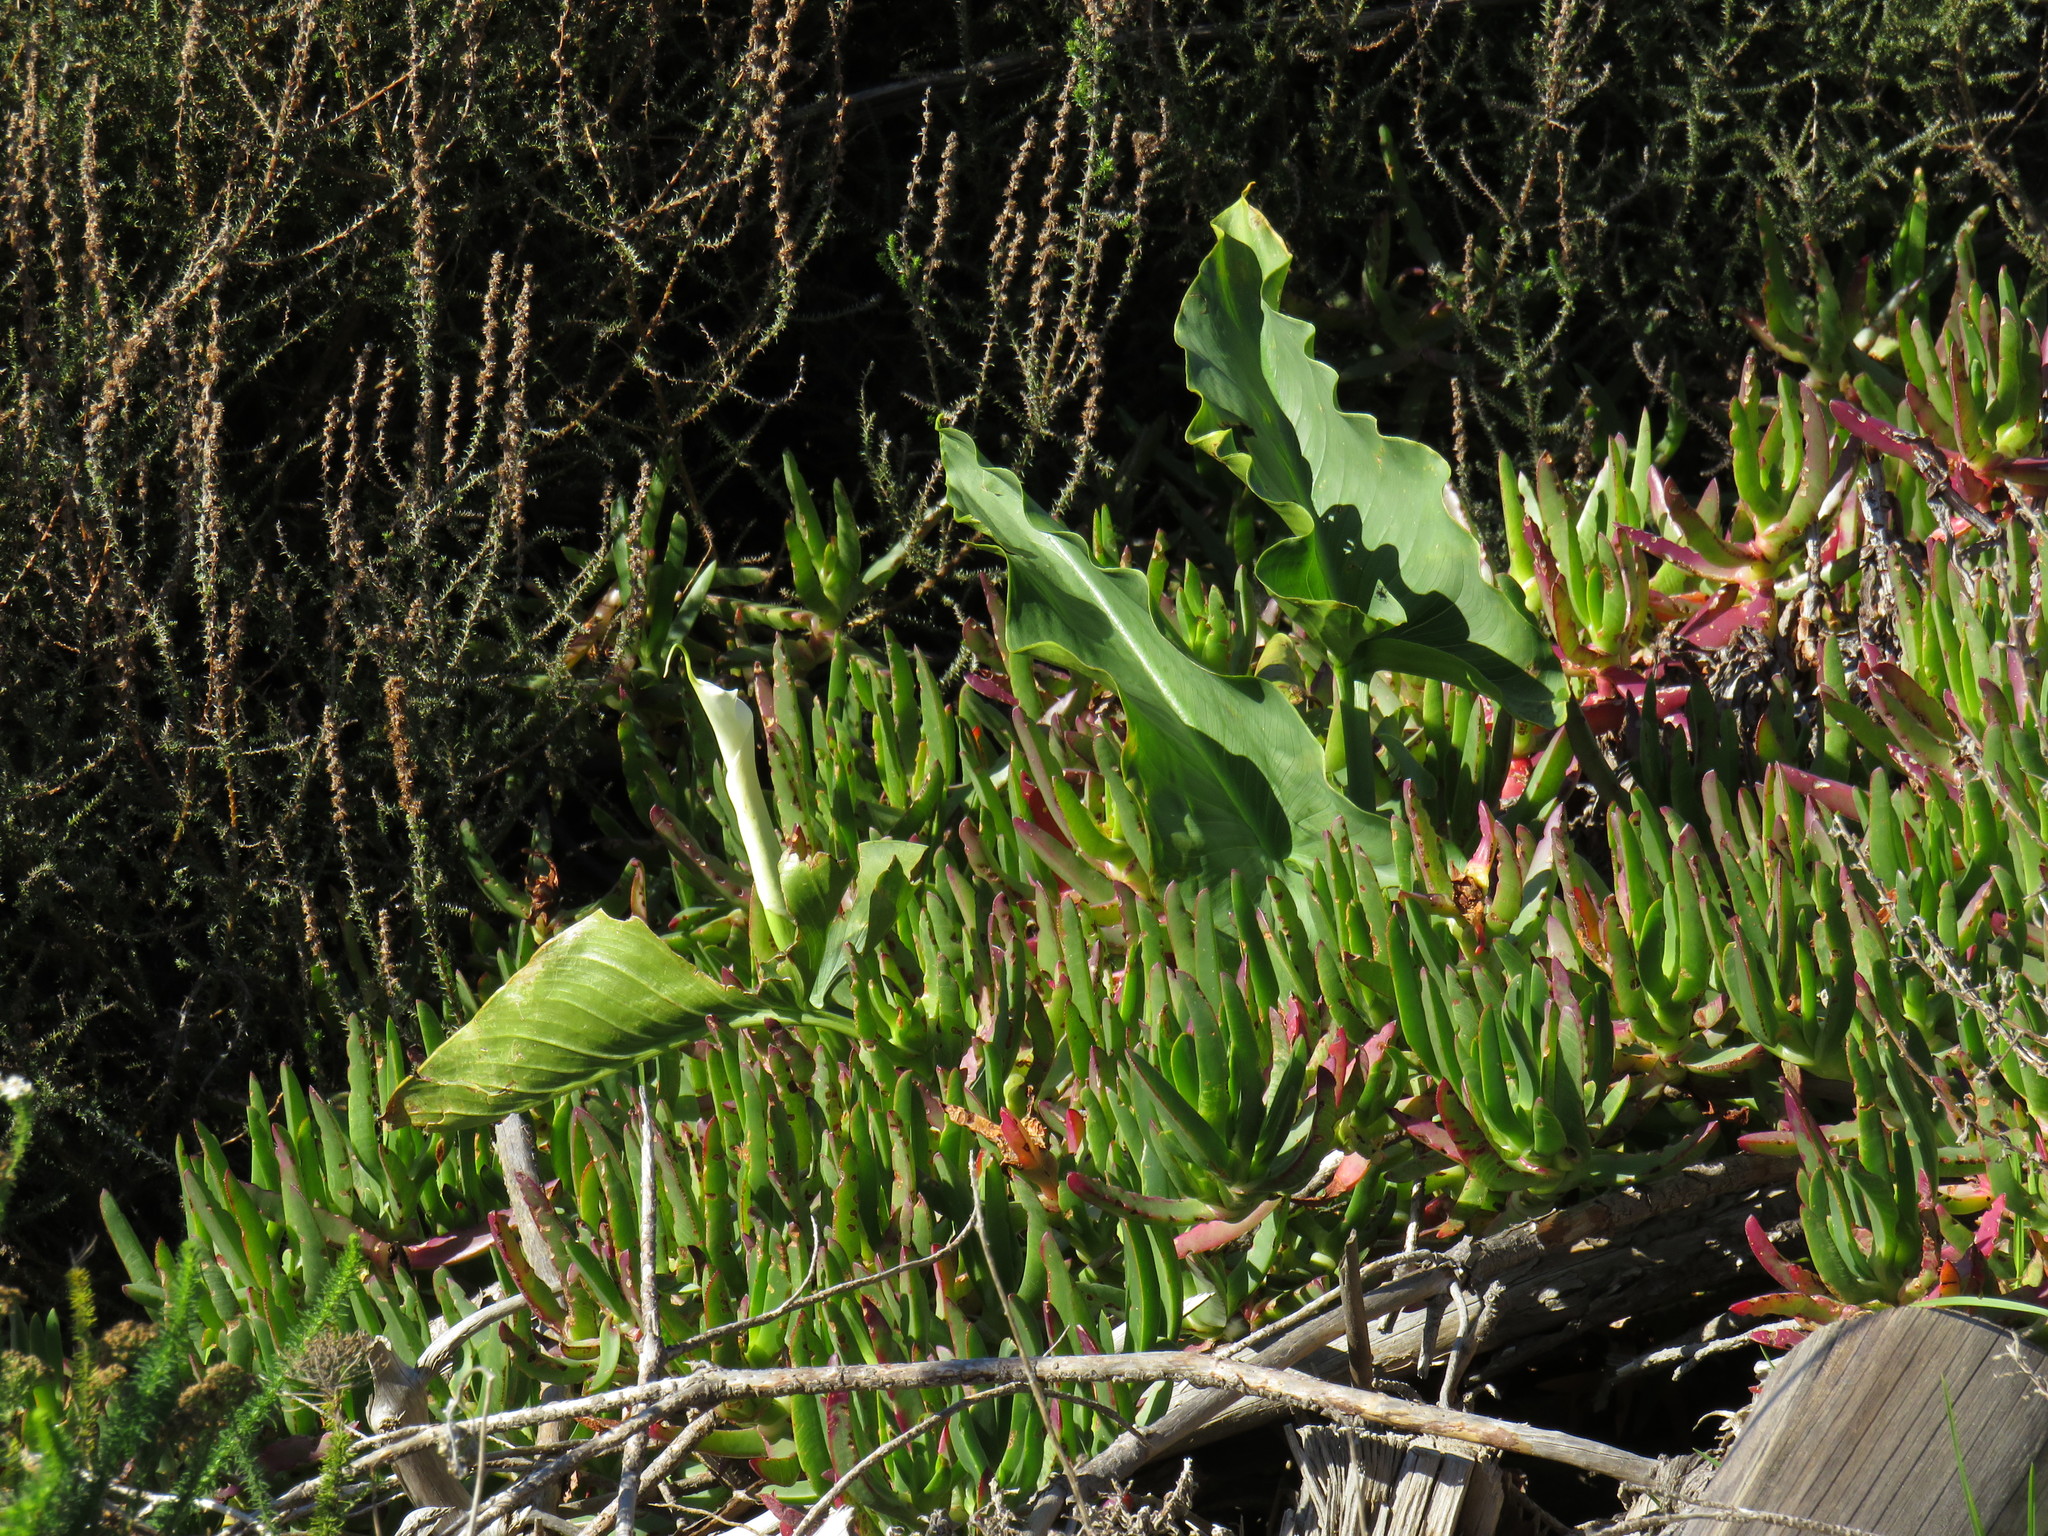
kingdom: Plantae
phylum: Tracheophyta
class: Liliopsida
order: Alismatales
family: Araceae
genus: Zantedeschia
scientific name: Zantedeschia aethiopica
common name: Altar-lily
